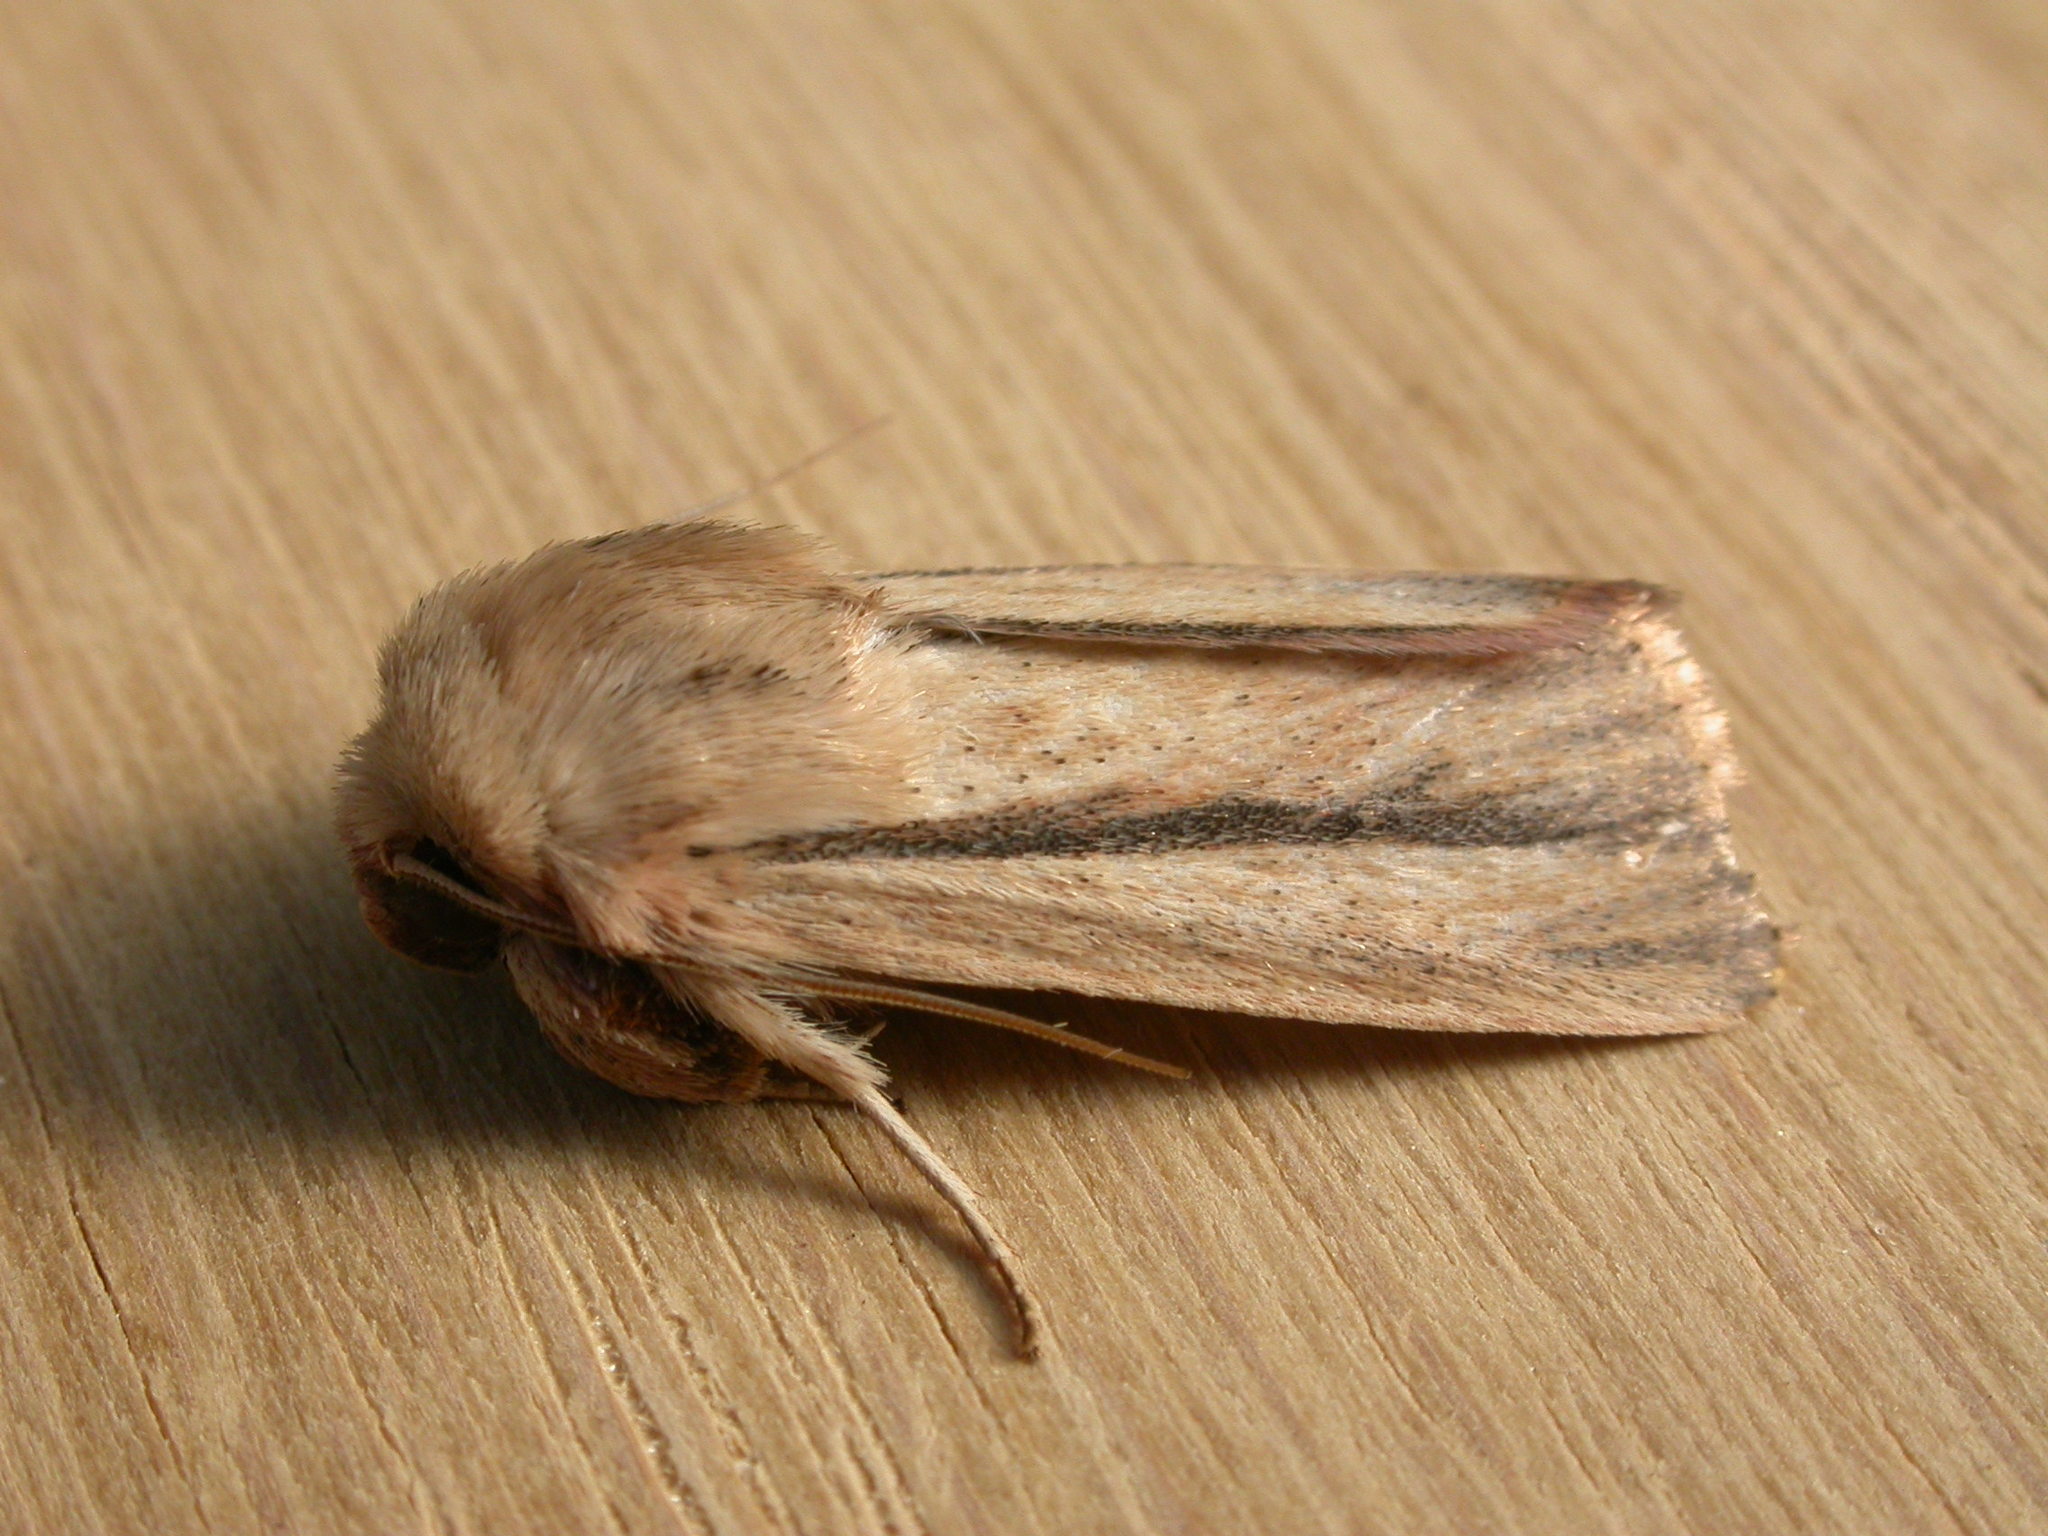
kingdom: Animalia
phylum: Arthropoda
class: Insecta
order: Lepidoptera
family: Noctuidae
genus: Leucania
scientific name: Leucania diatrecta
